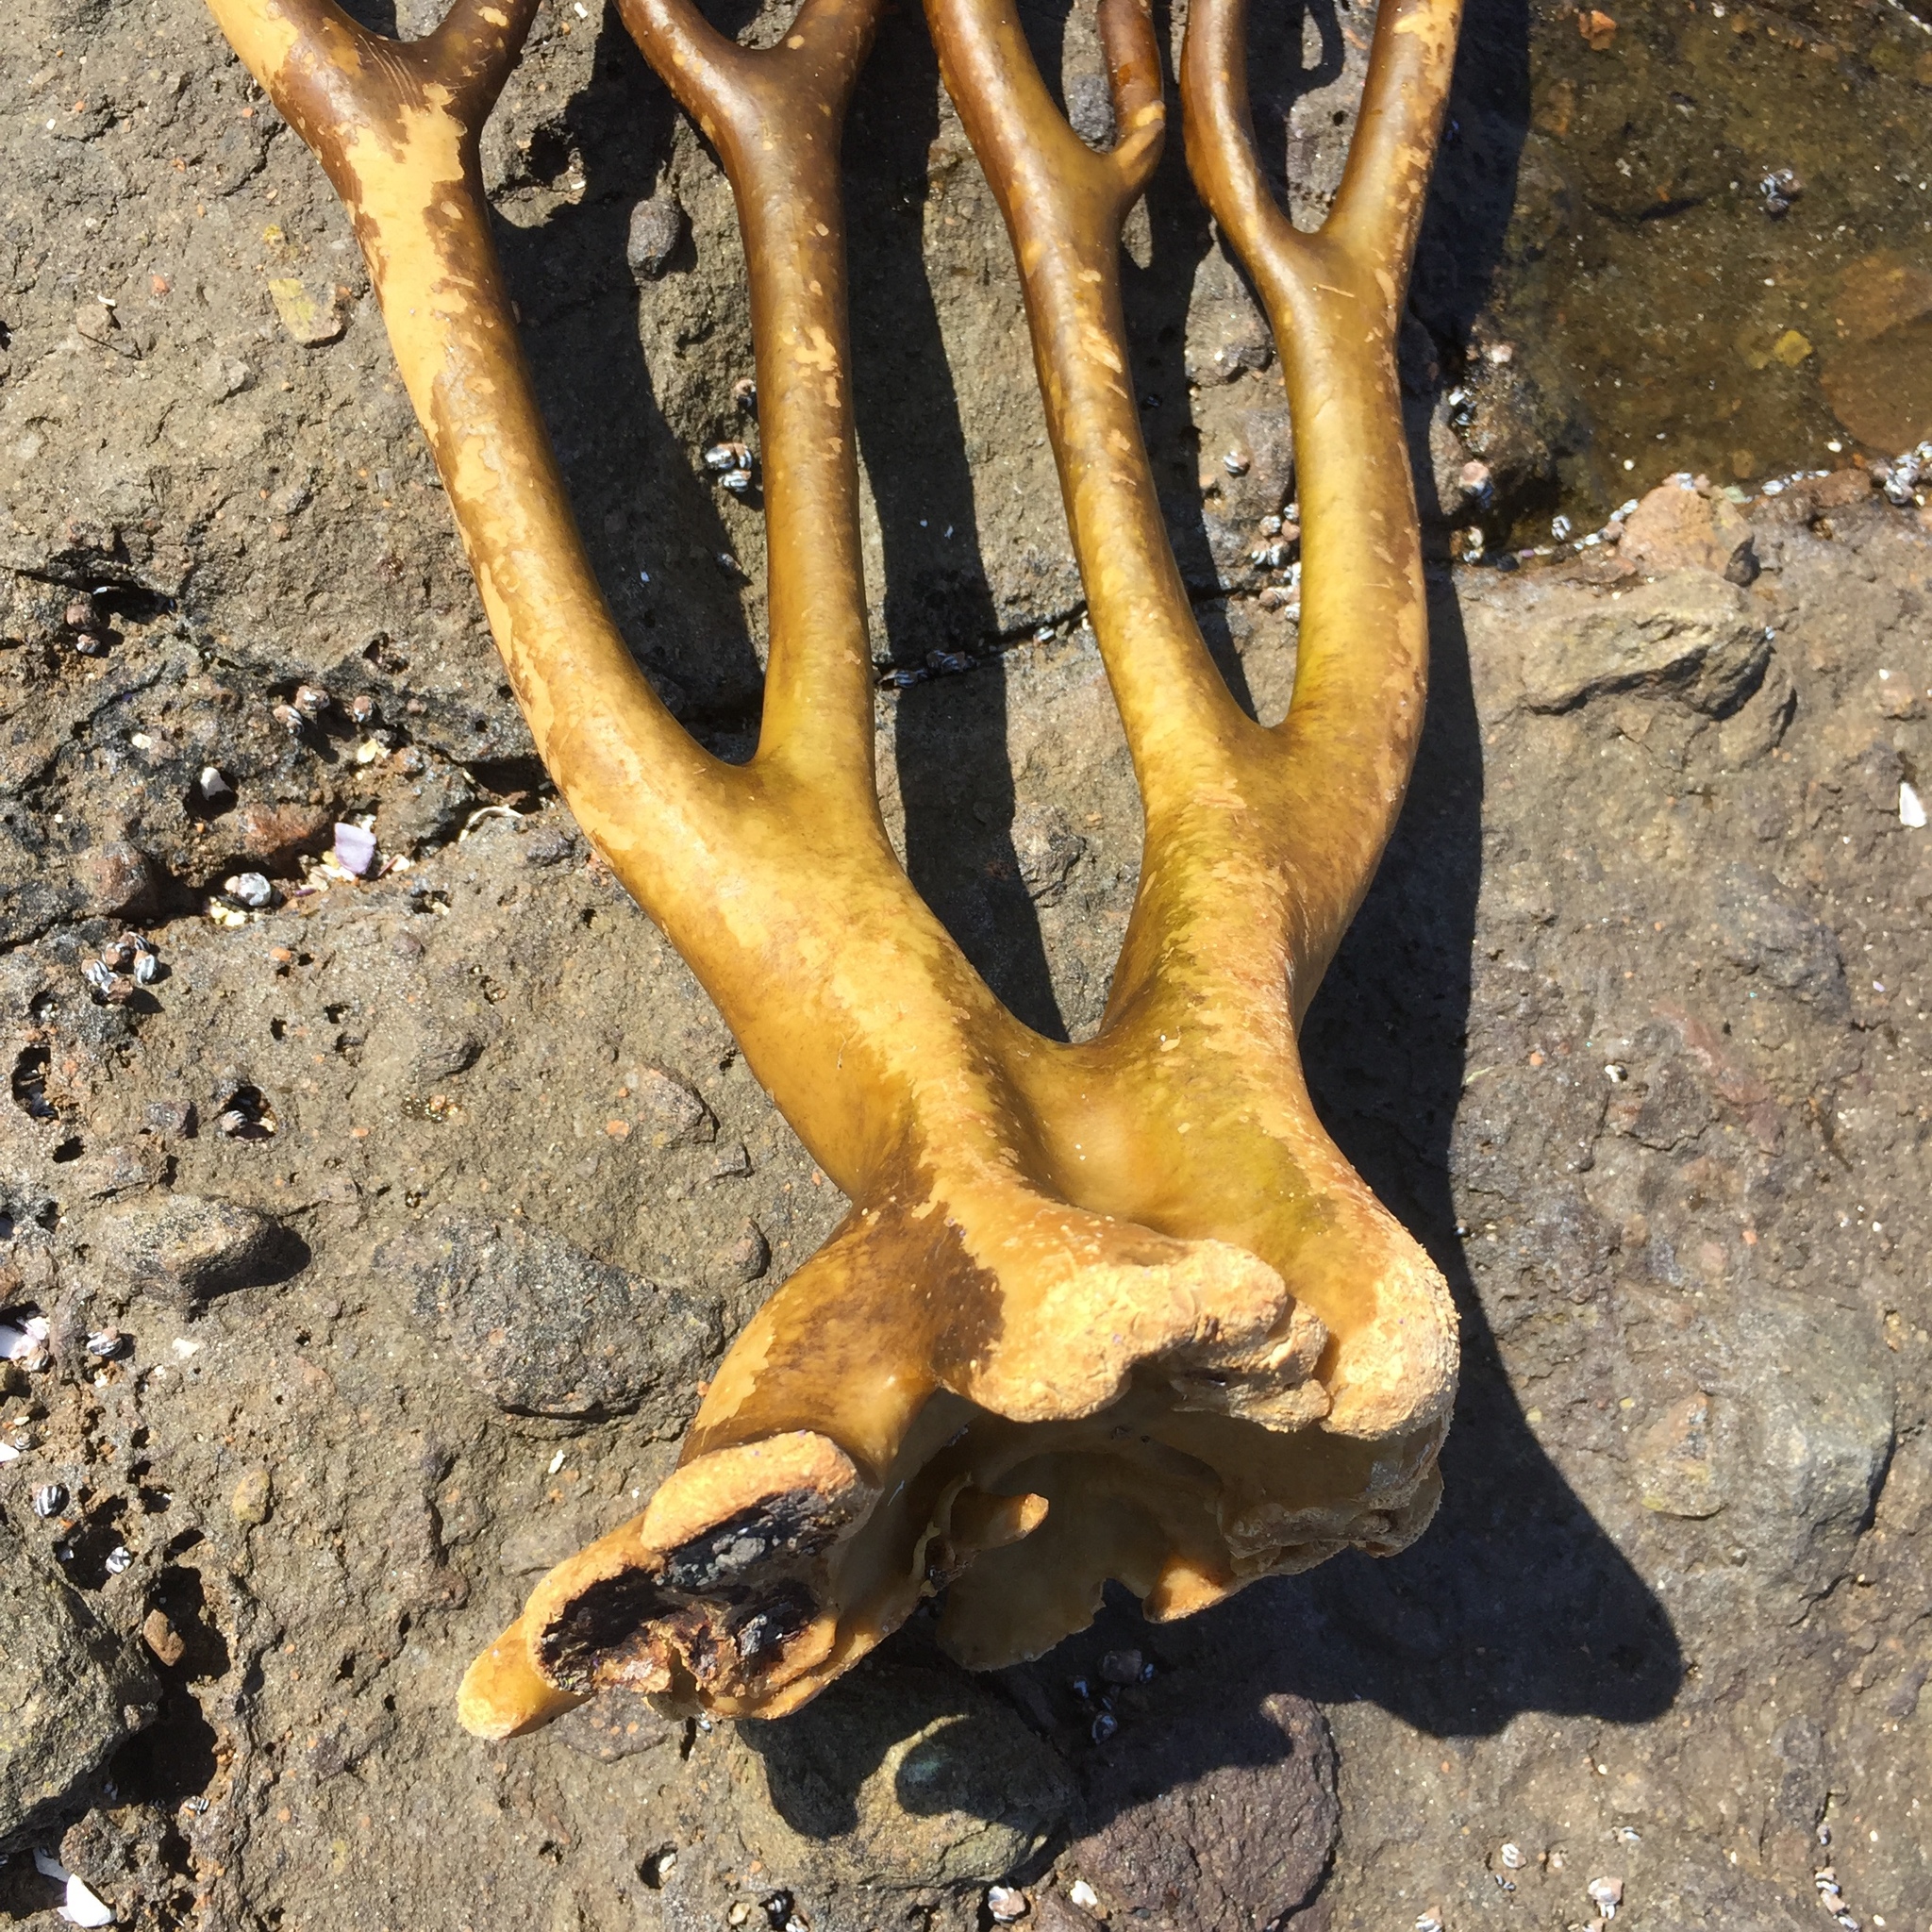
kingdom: Chromista
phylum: Ochrophyta
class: Phaeophyceae
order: Laminariales
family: Lessoniaceae
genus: Lessonia
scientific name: Lessonia trabeculata
